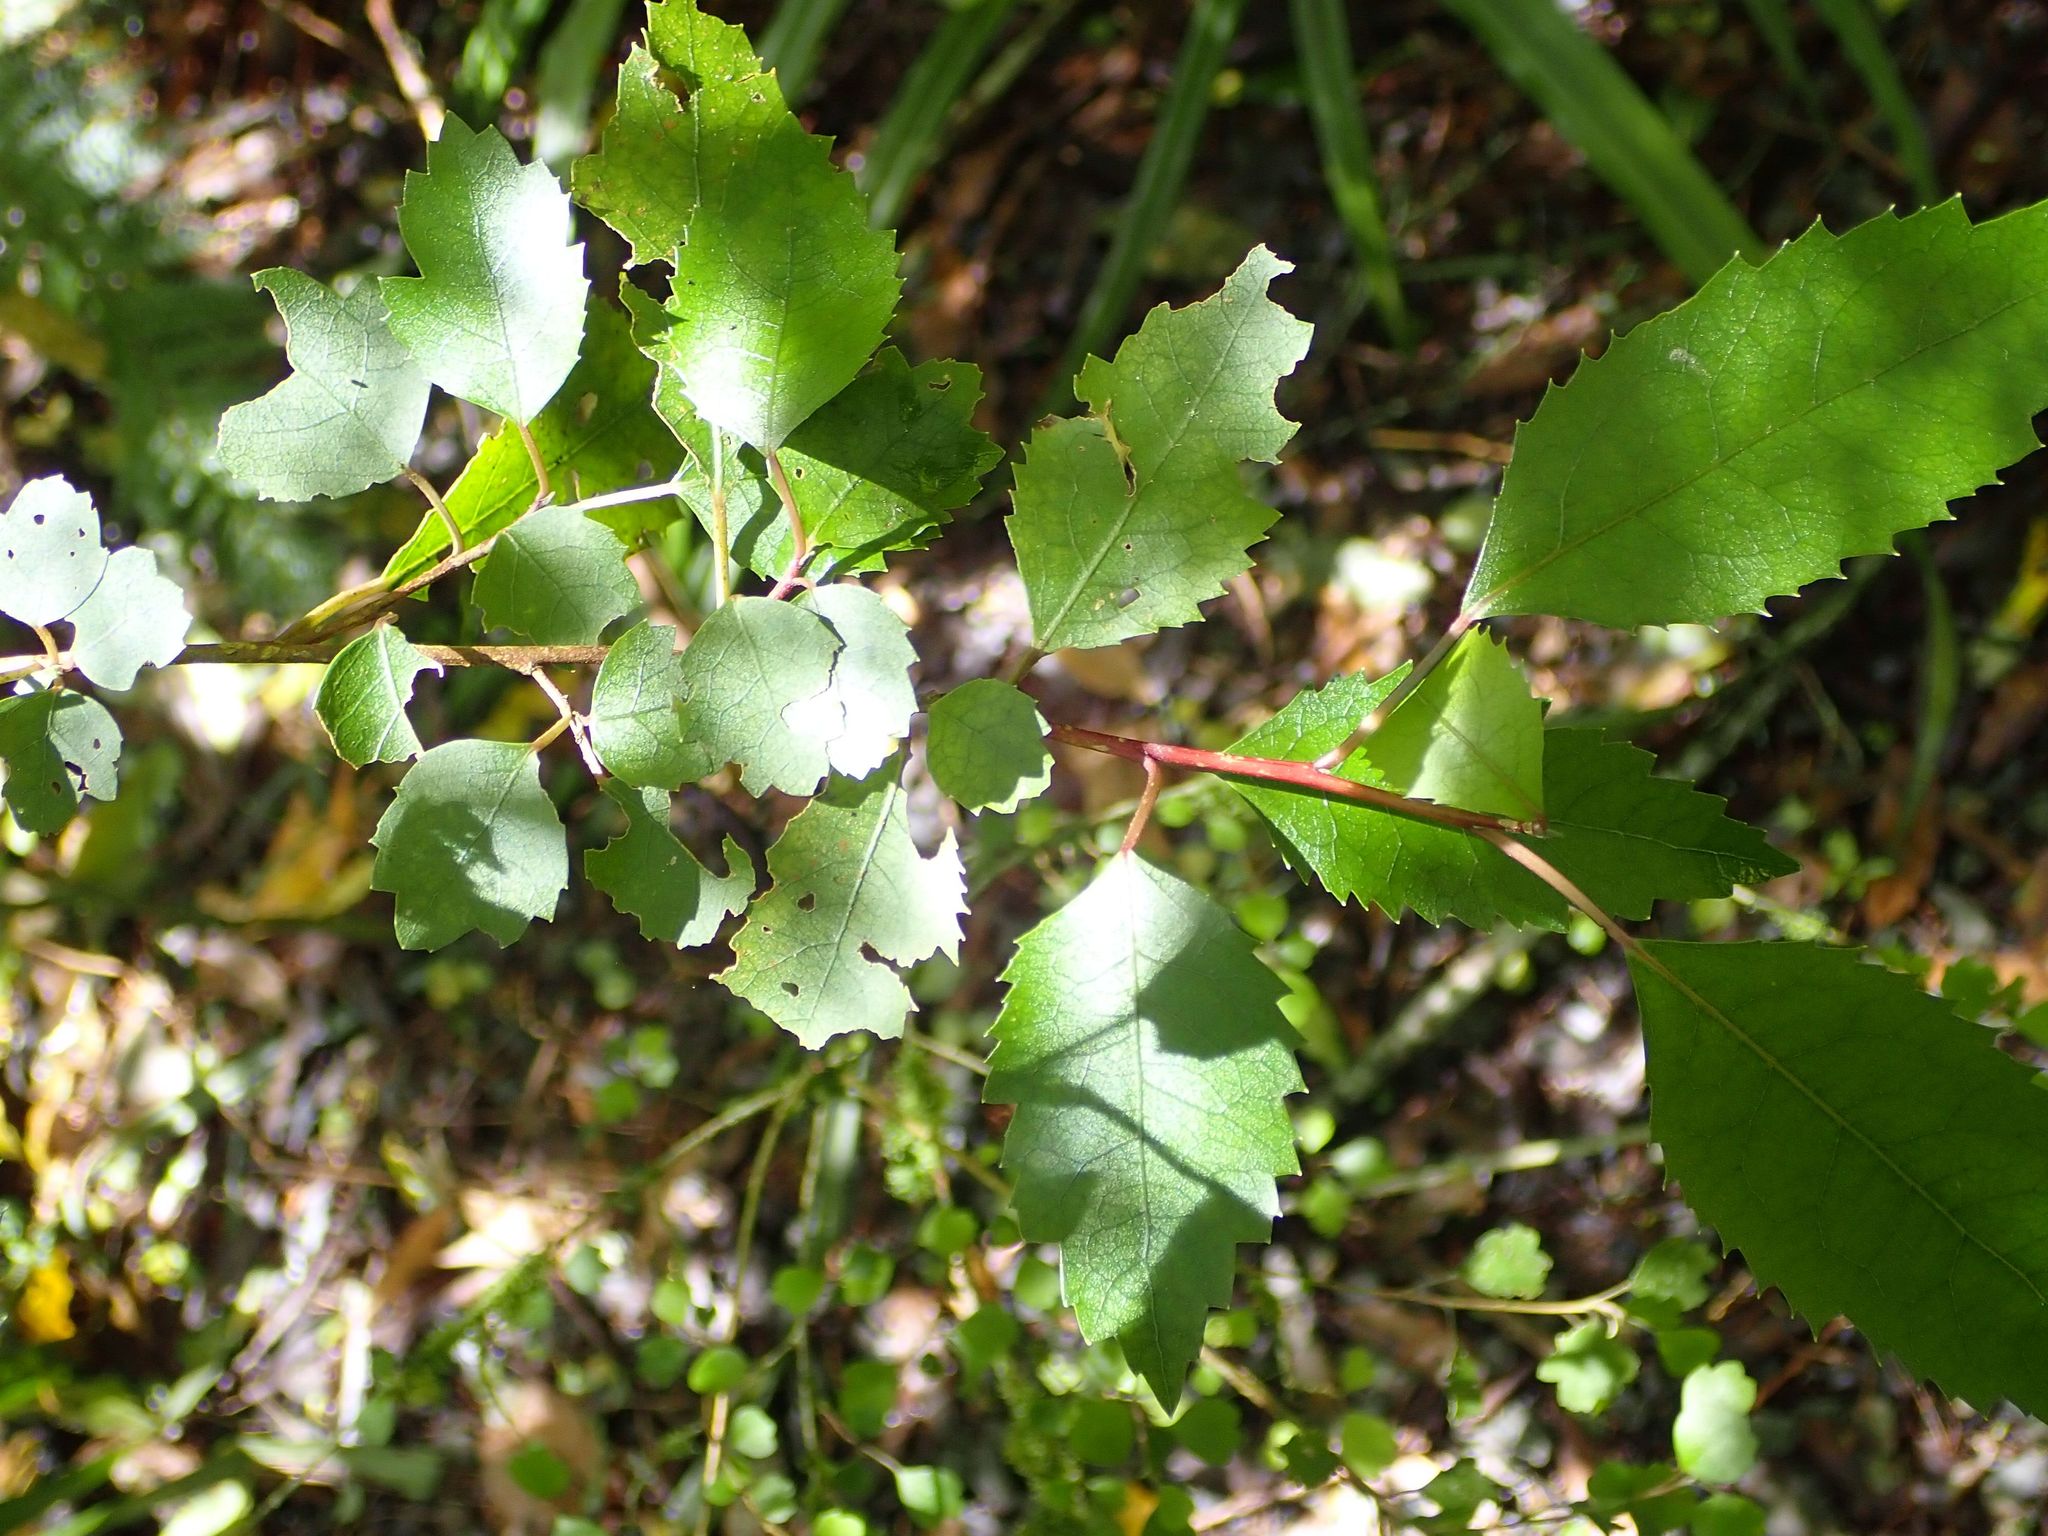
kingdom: Plantae
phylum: Tracheophyta
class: Magnoliopsida
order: Malvales
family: Malvaceae
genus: Hoheria
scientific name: Hoheria sexstylosa
